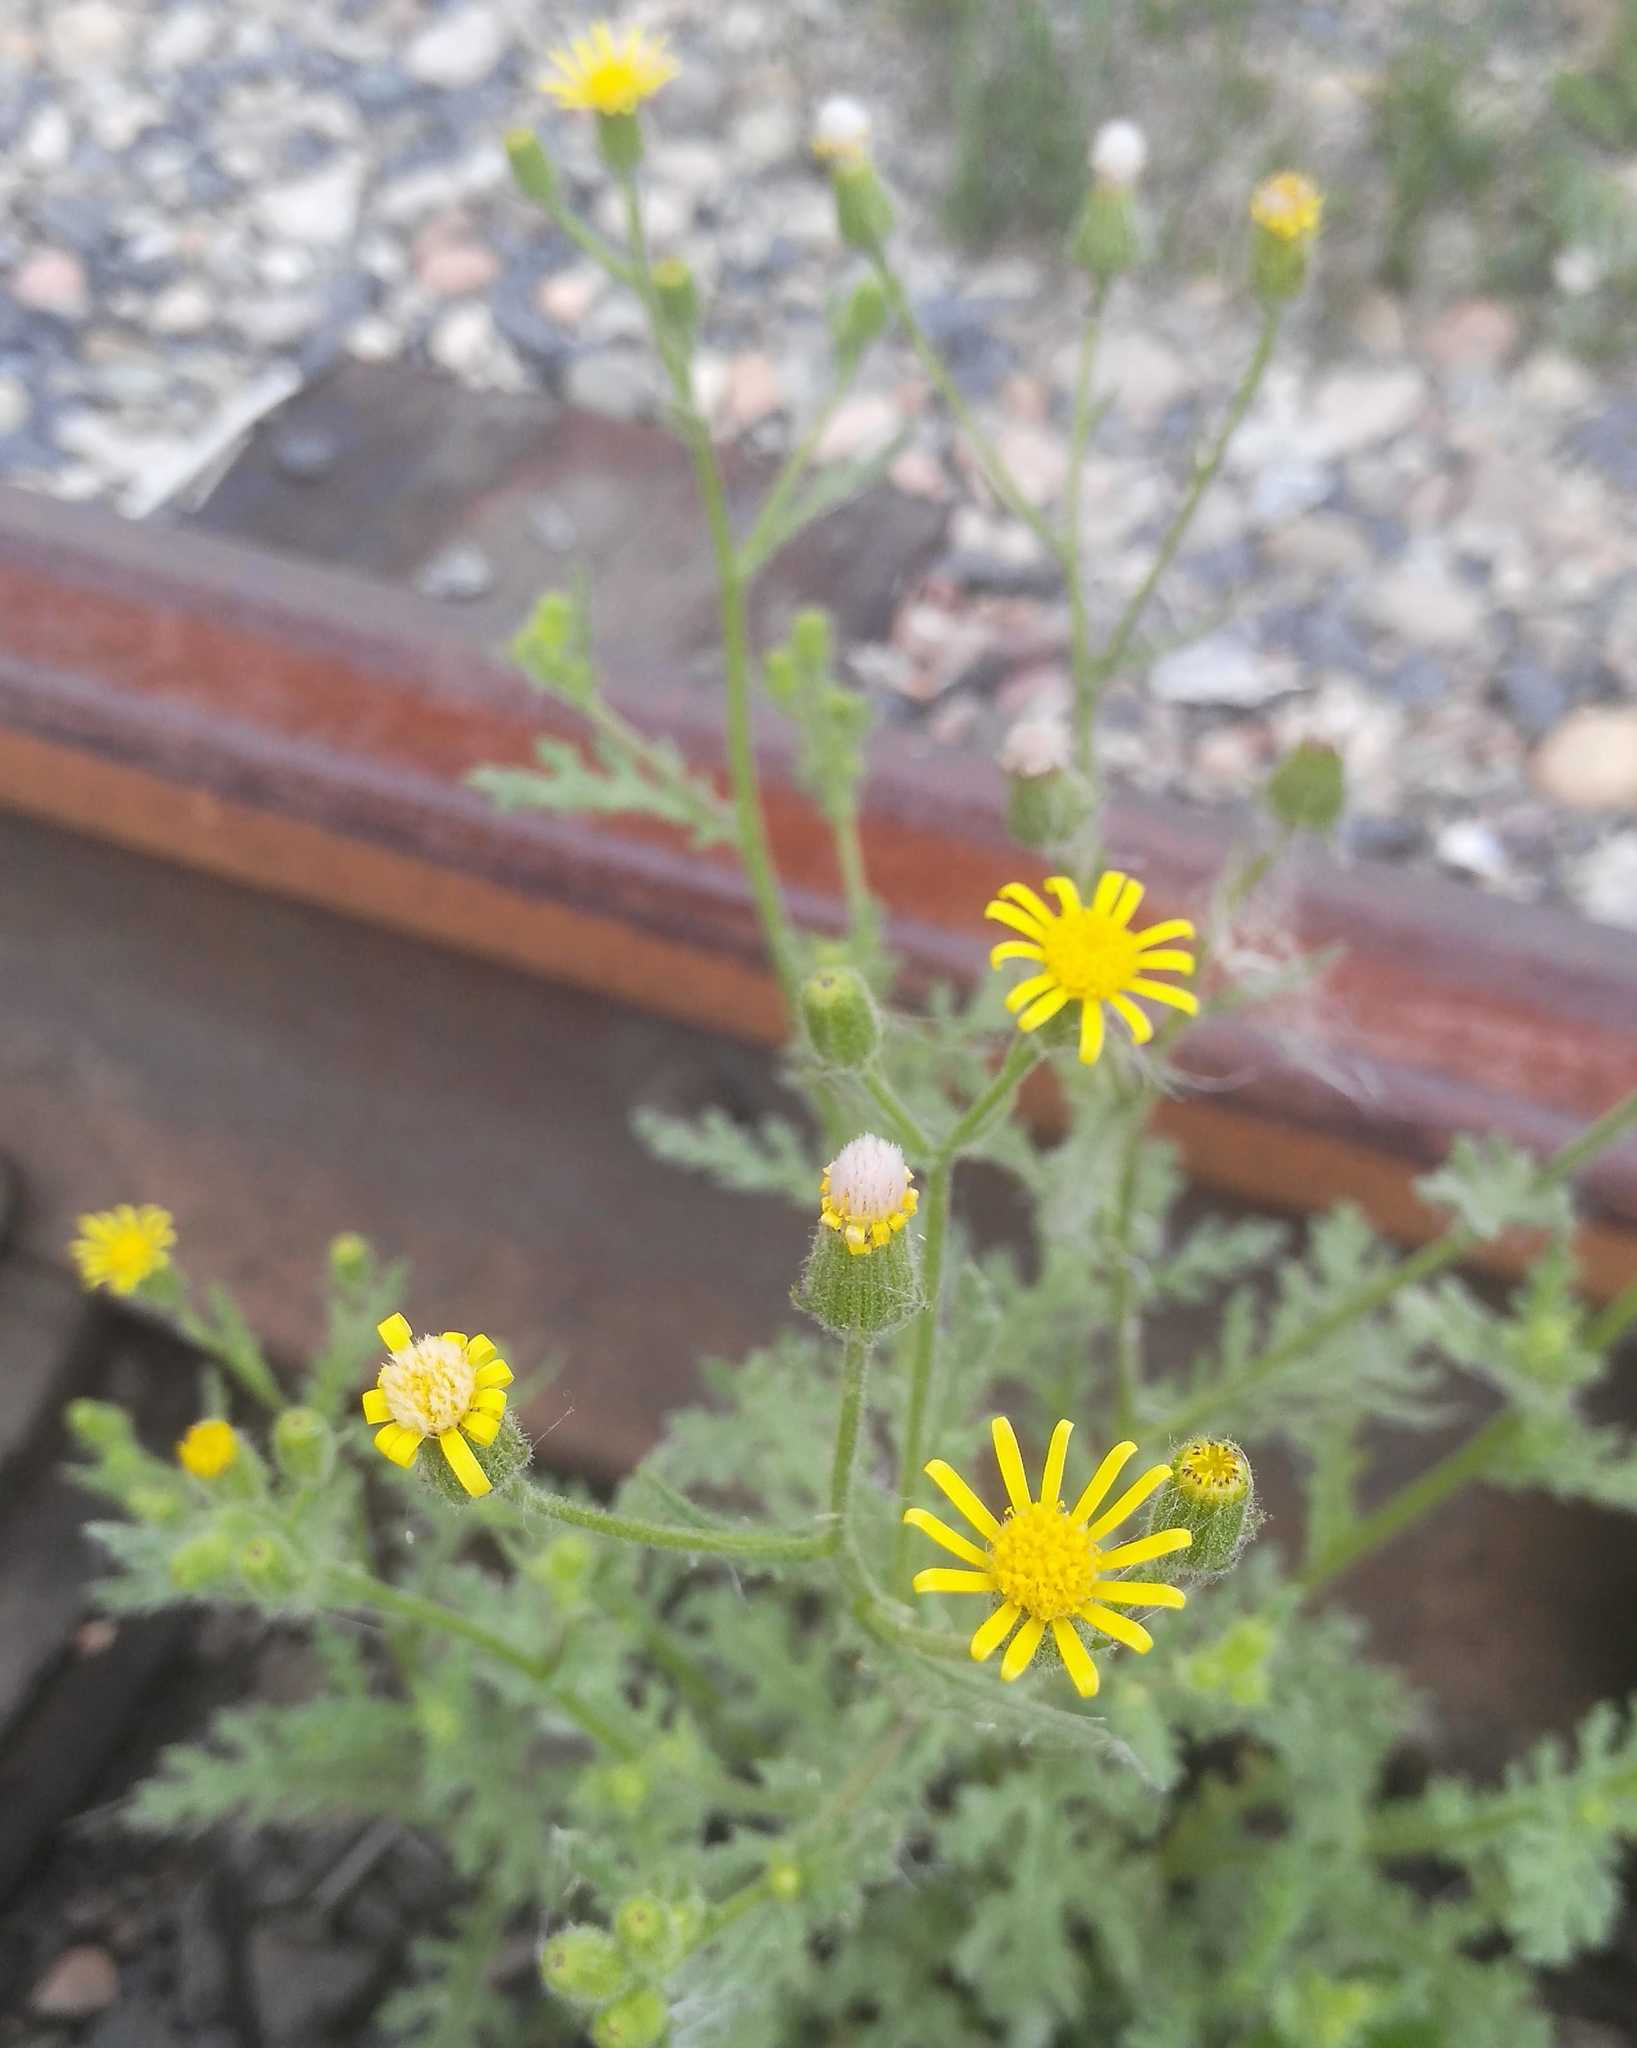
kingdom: Plantae
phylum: Tracheophyta
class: Magnoliopsida
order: Asterales
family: Asteraceae
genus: Senecio
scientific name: Senecio viscosus
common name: Sticky groundsel
